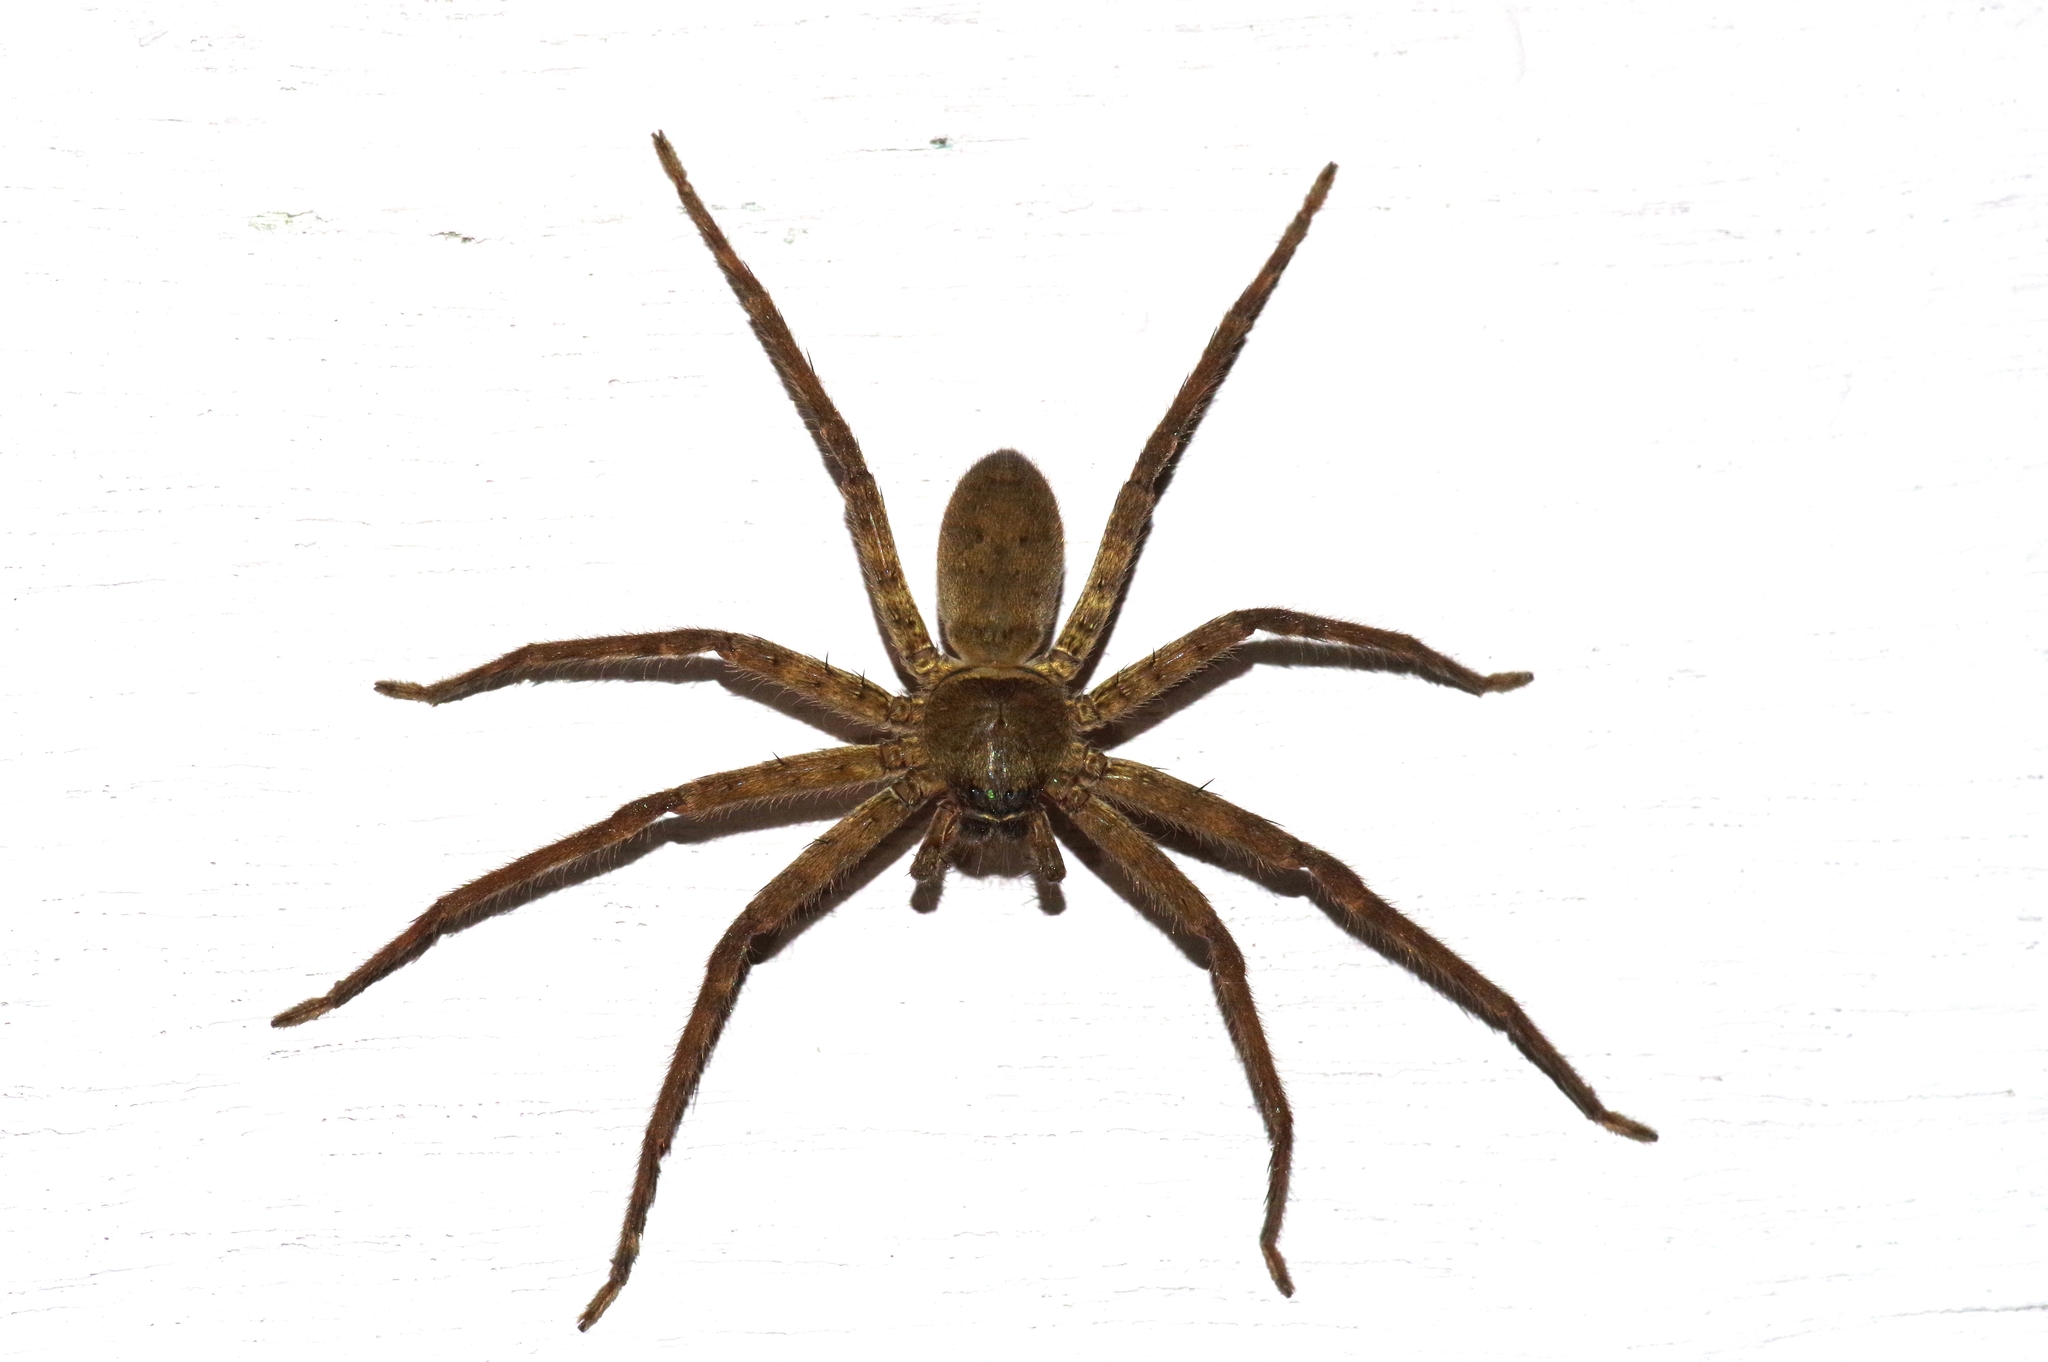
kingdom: Animalia
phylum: Arthropoda
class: Arachnida
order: Araneae
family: Sparassidae
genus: Heteropoda
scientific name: Heteropoda venatoria
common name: Huntsman spider
